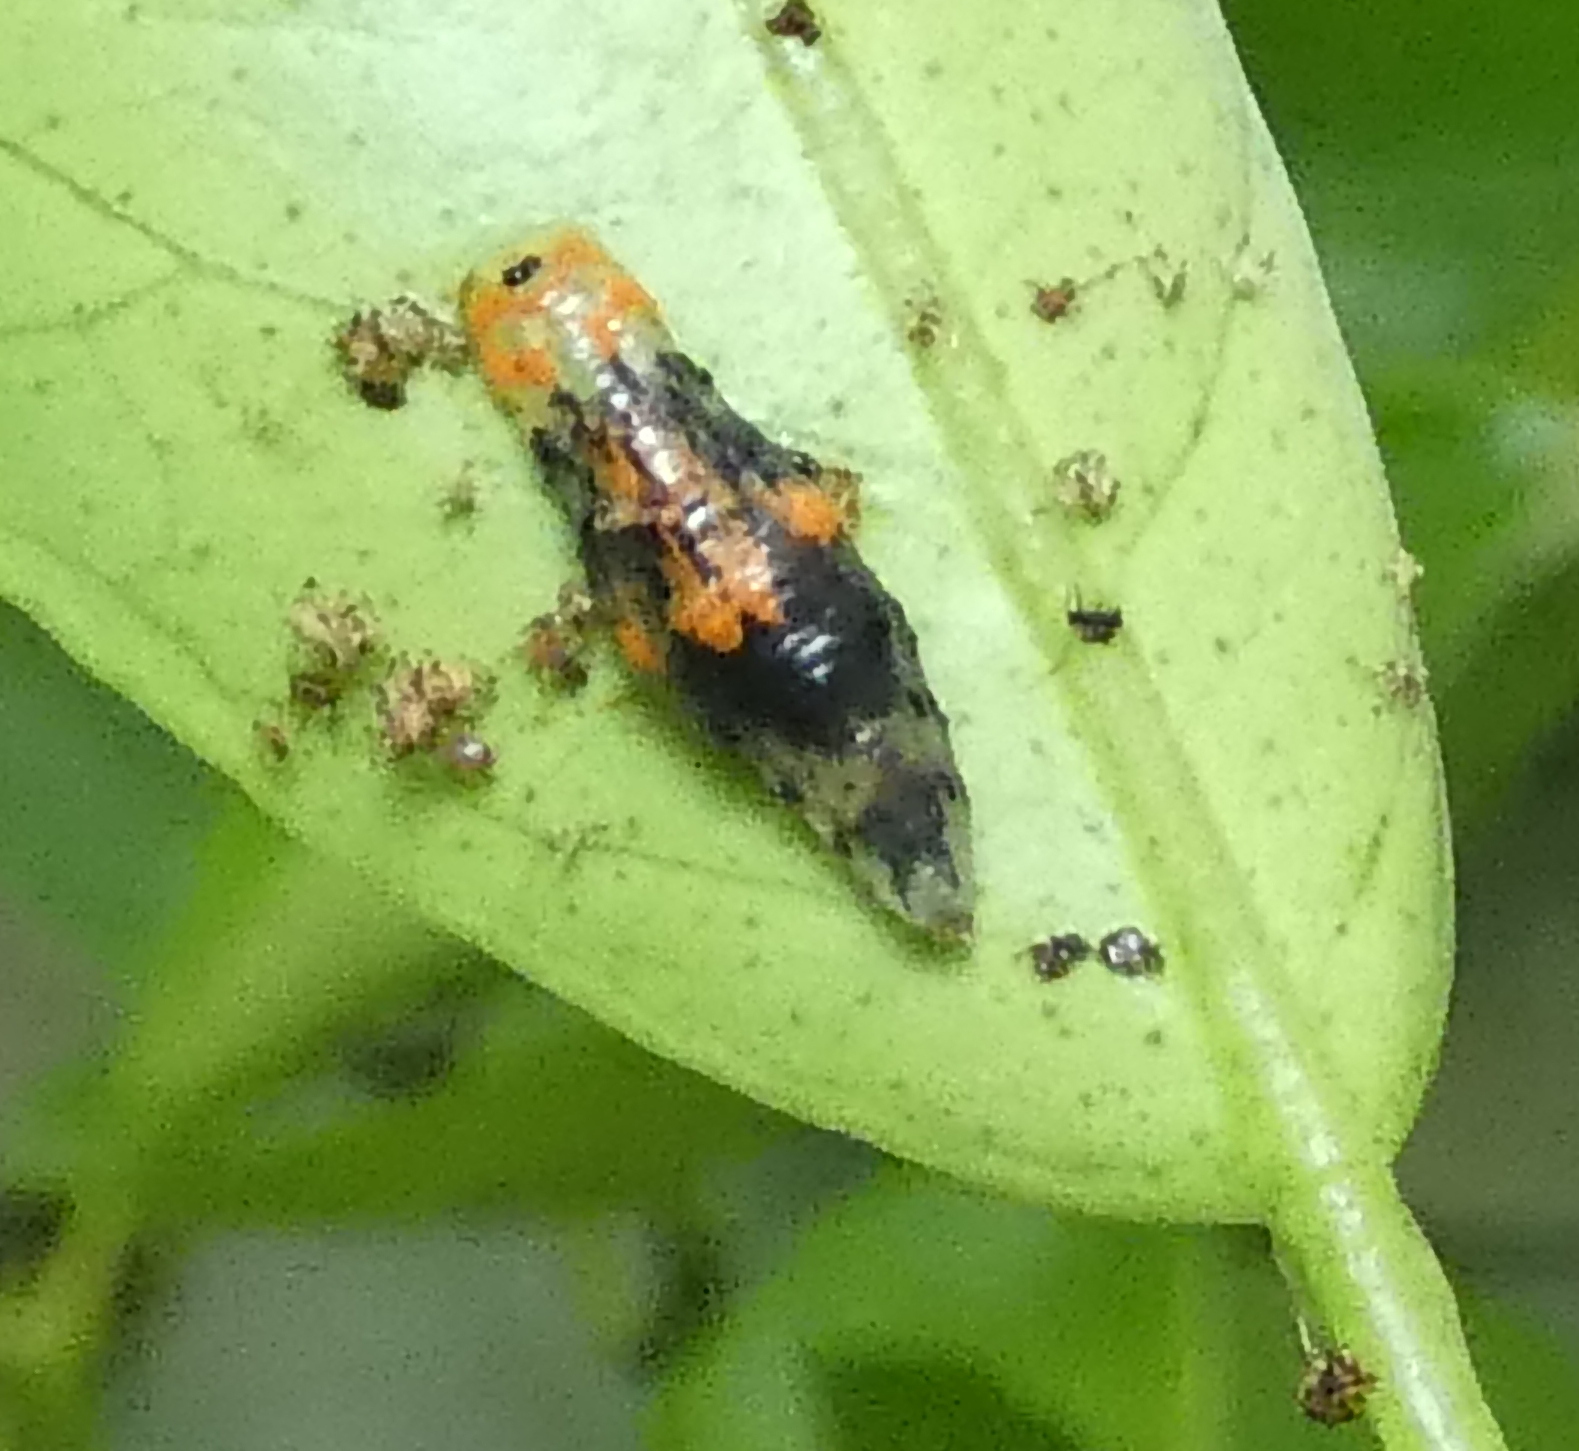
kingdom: Animalia
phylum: Arthropoda
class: Insecta
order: Diptera
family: Syrphidae
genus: Ocyptamus
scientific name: Ocyptamus gastrostactus
